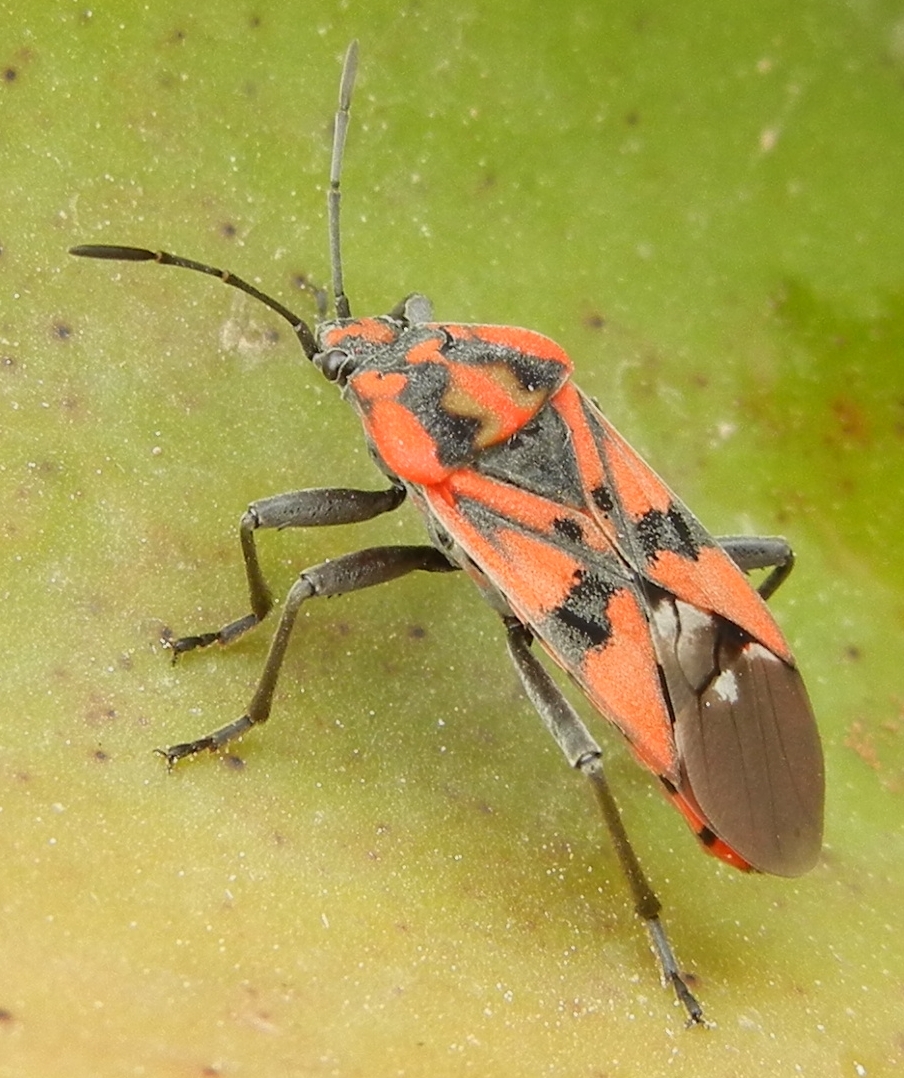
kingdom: Animalia
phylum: Arthropoda
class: Insecta
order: Hemiptera
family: Lygaeidae
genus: Spilostethus
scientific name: Spilostethus pandurus
